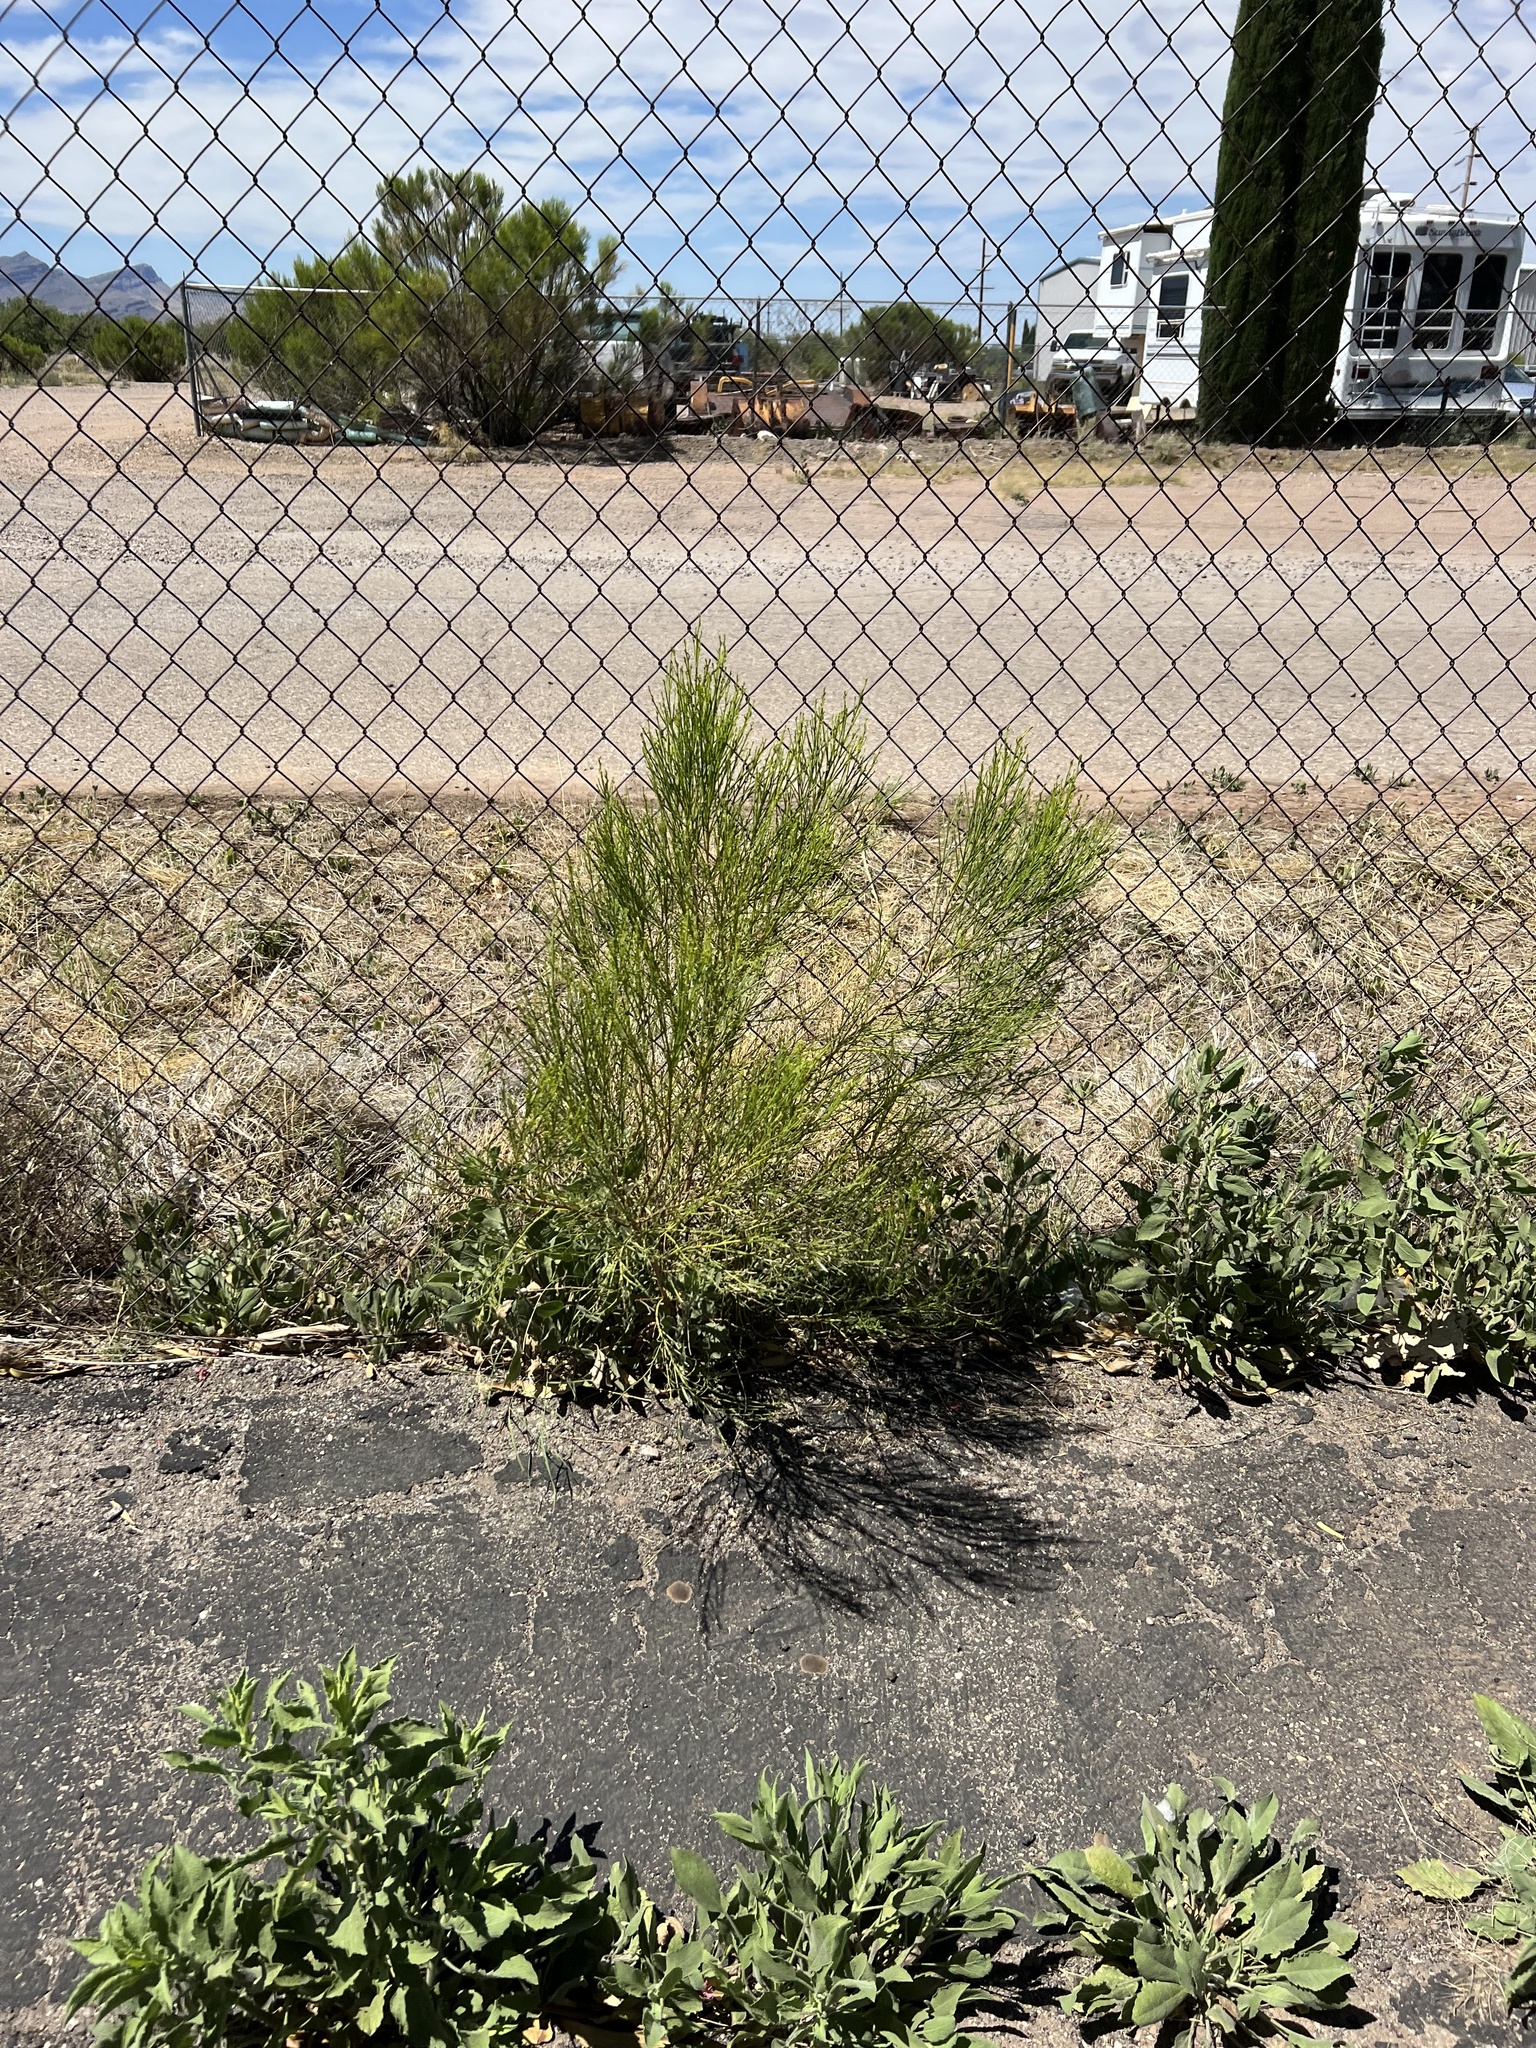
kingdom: Plantae
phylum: Tracheophyta
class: Magnoliopsida
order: Asterales
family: Asteraceae
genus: Baccharis
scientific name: Baccharis sarothroides
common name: Desert-broom
